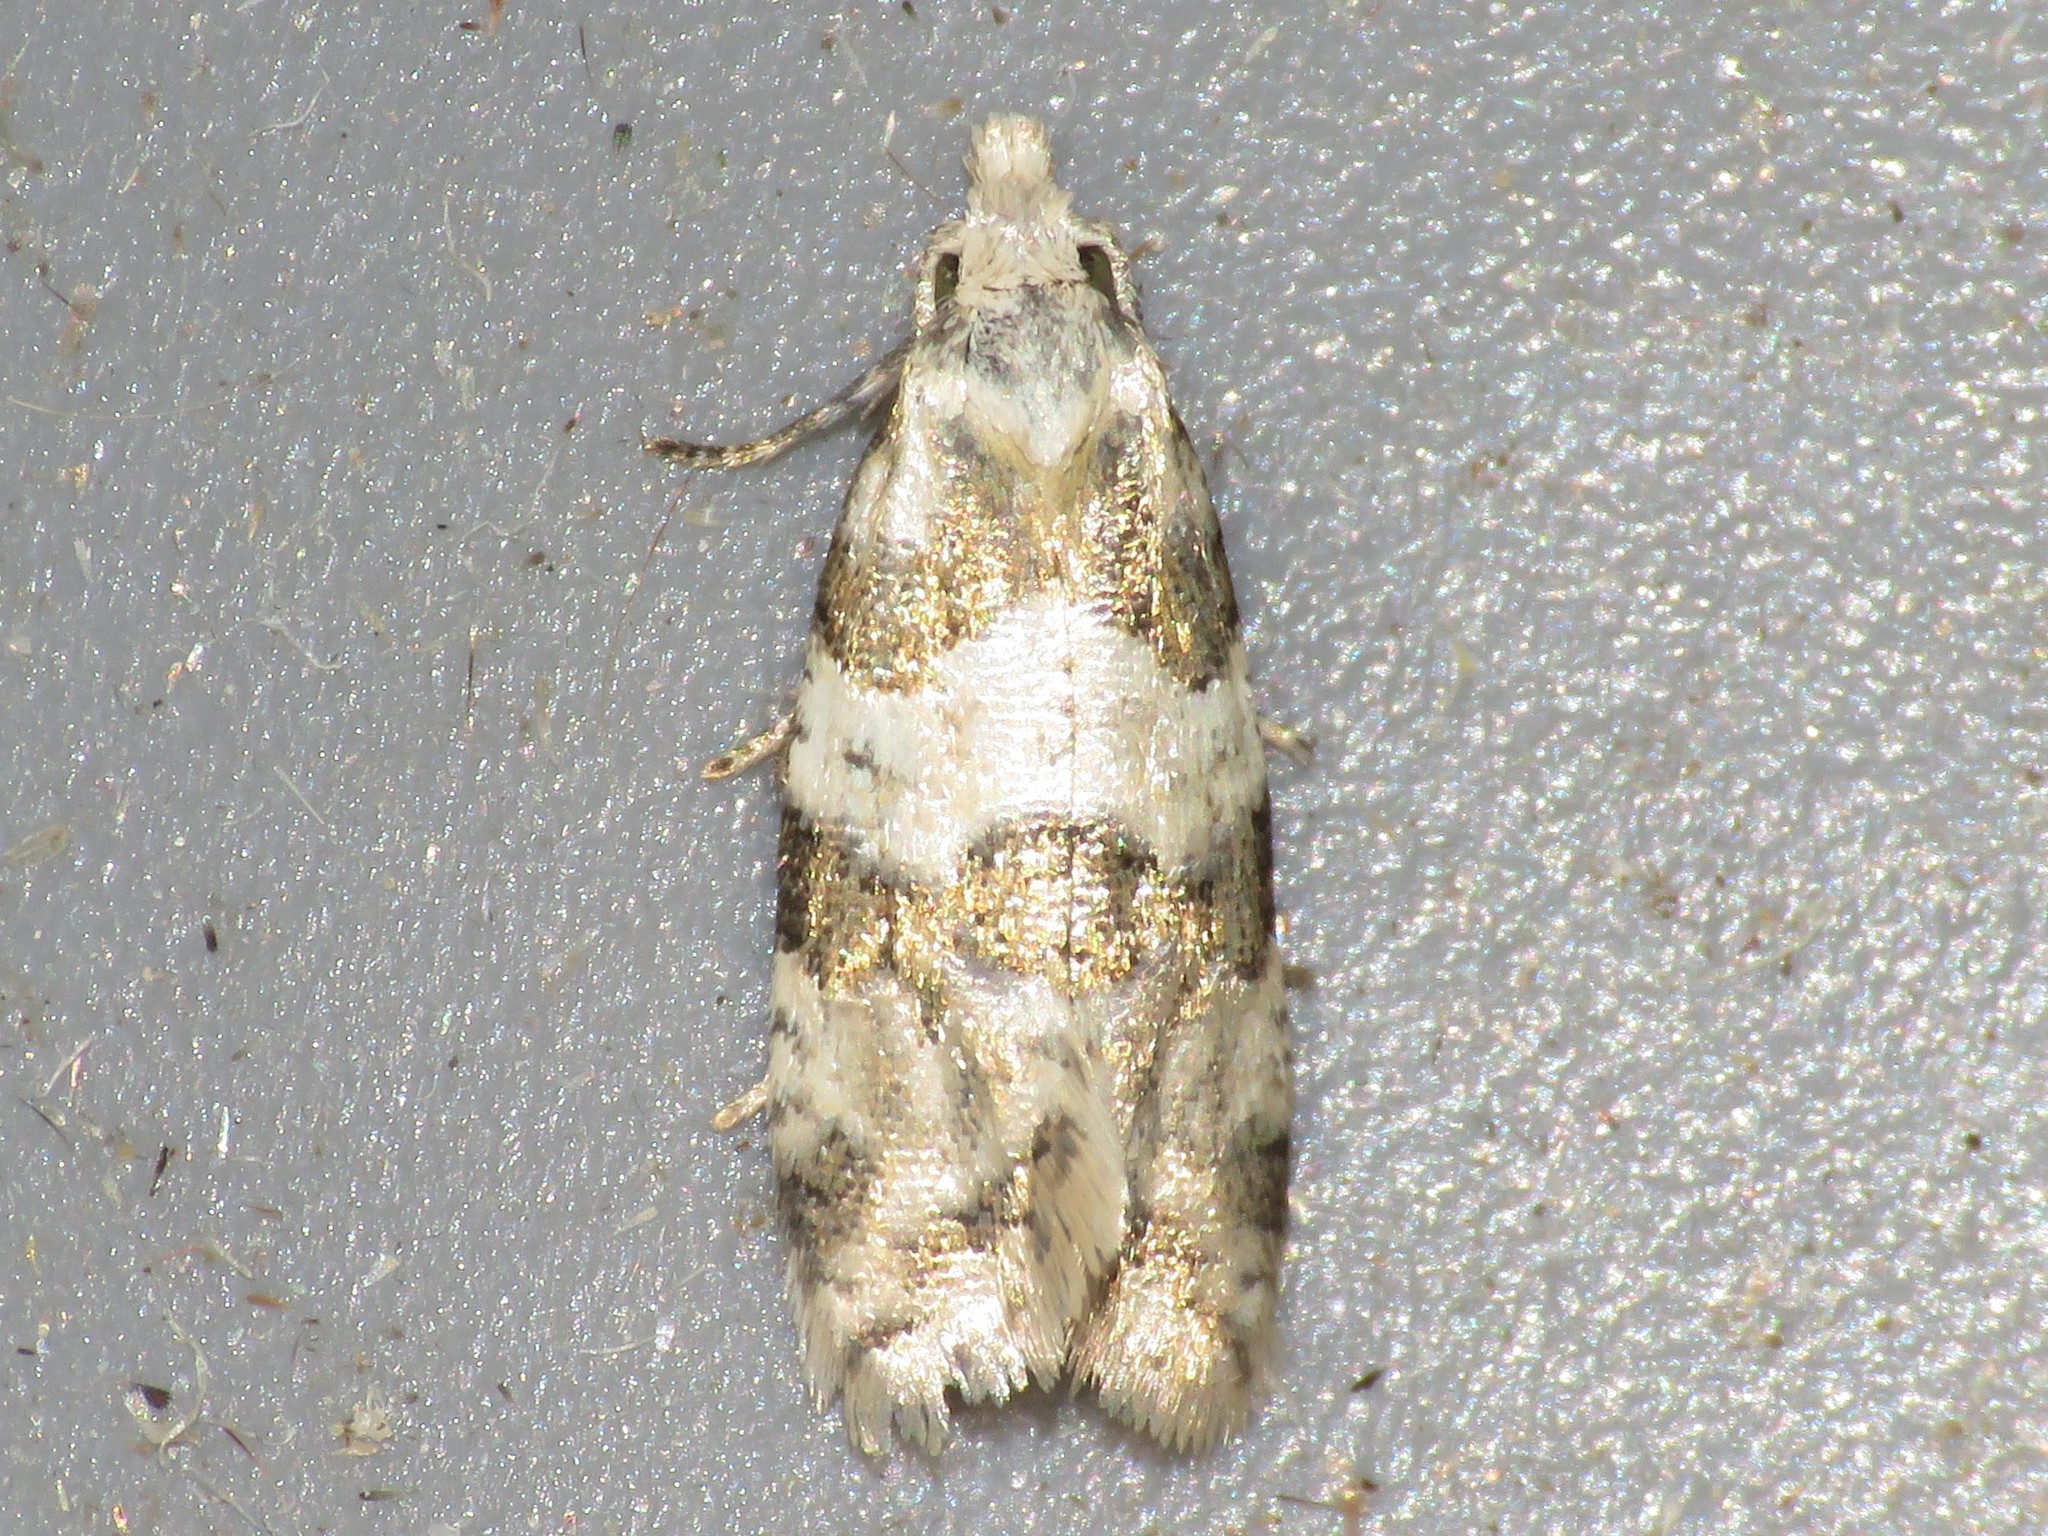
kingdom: Animalia
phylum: Arthropoda
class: Insecta
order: Lepidoptera
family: Tortricidae
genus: Aethes
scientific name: Aethes argentilimitana
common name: Silver-bordered aethes
